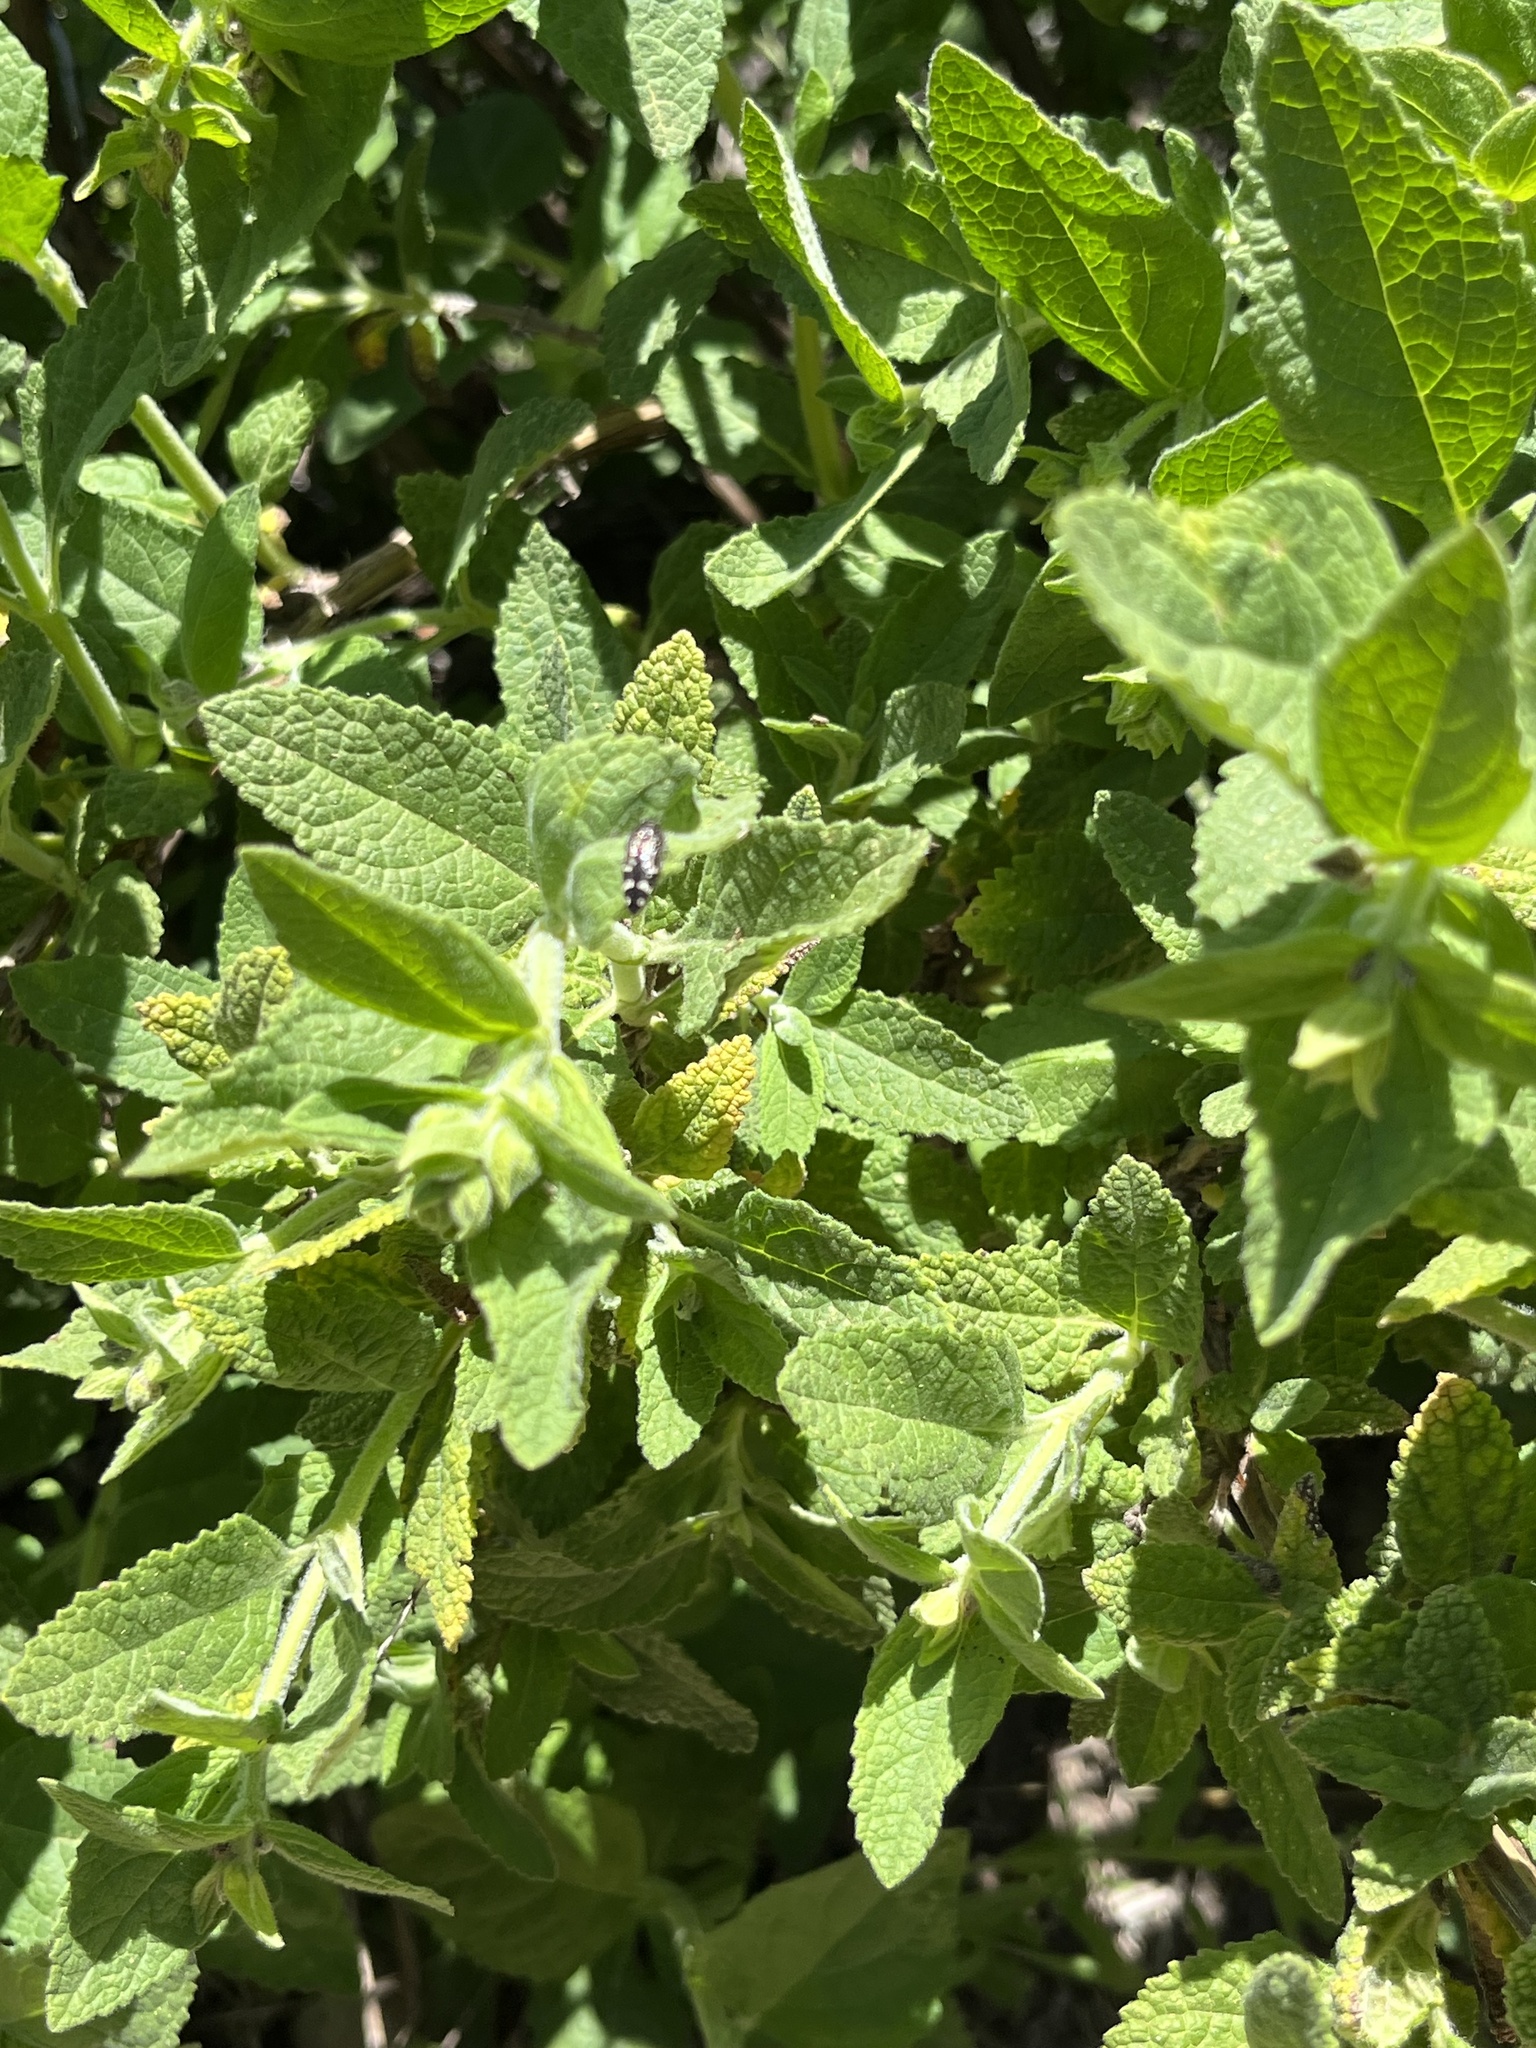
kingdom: Plantae
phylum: Tracheophyta
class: Magnoliopsida
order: Lamiales
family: Lamiaceae
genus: Lepechinia
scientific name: Lepechinia calycina
